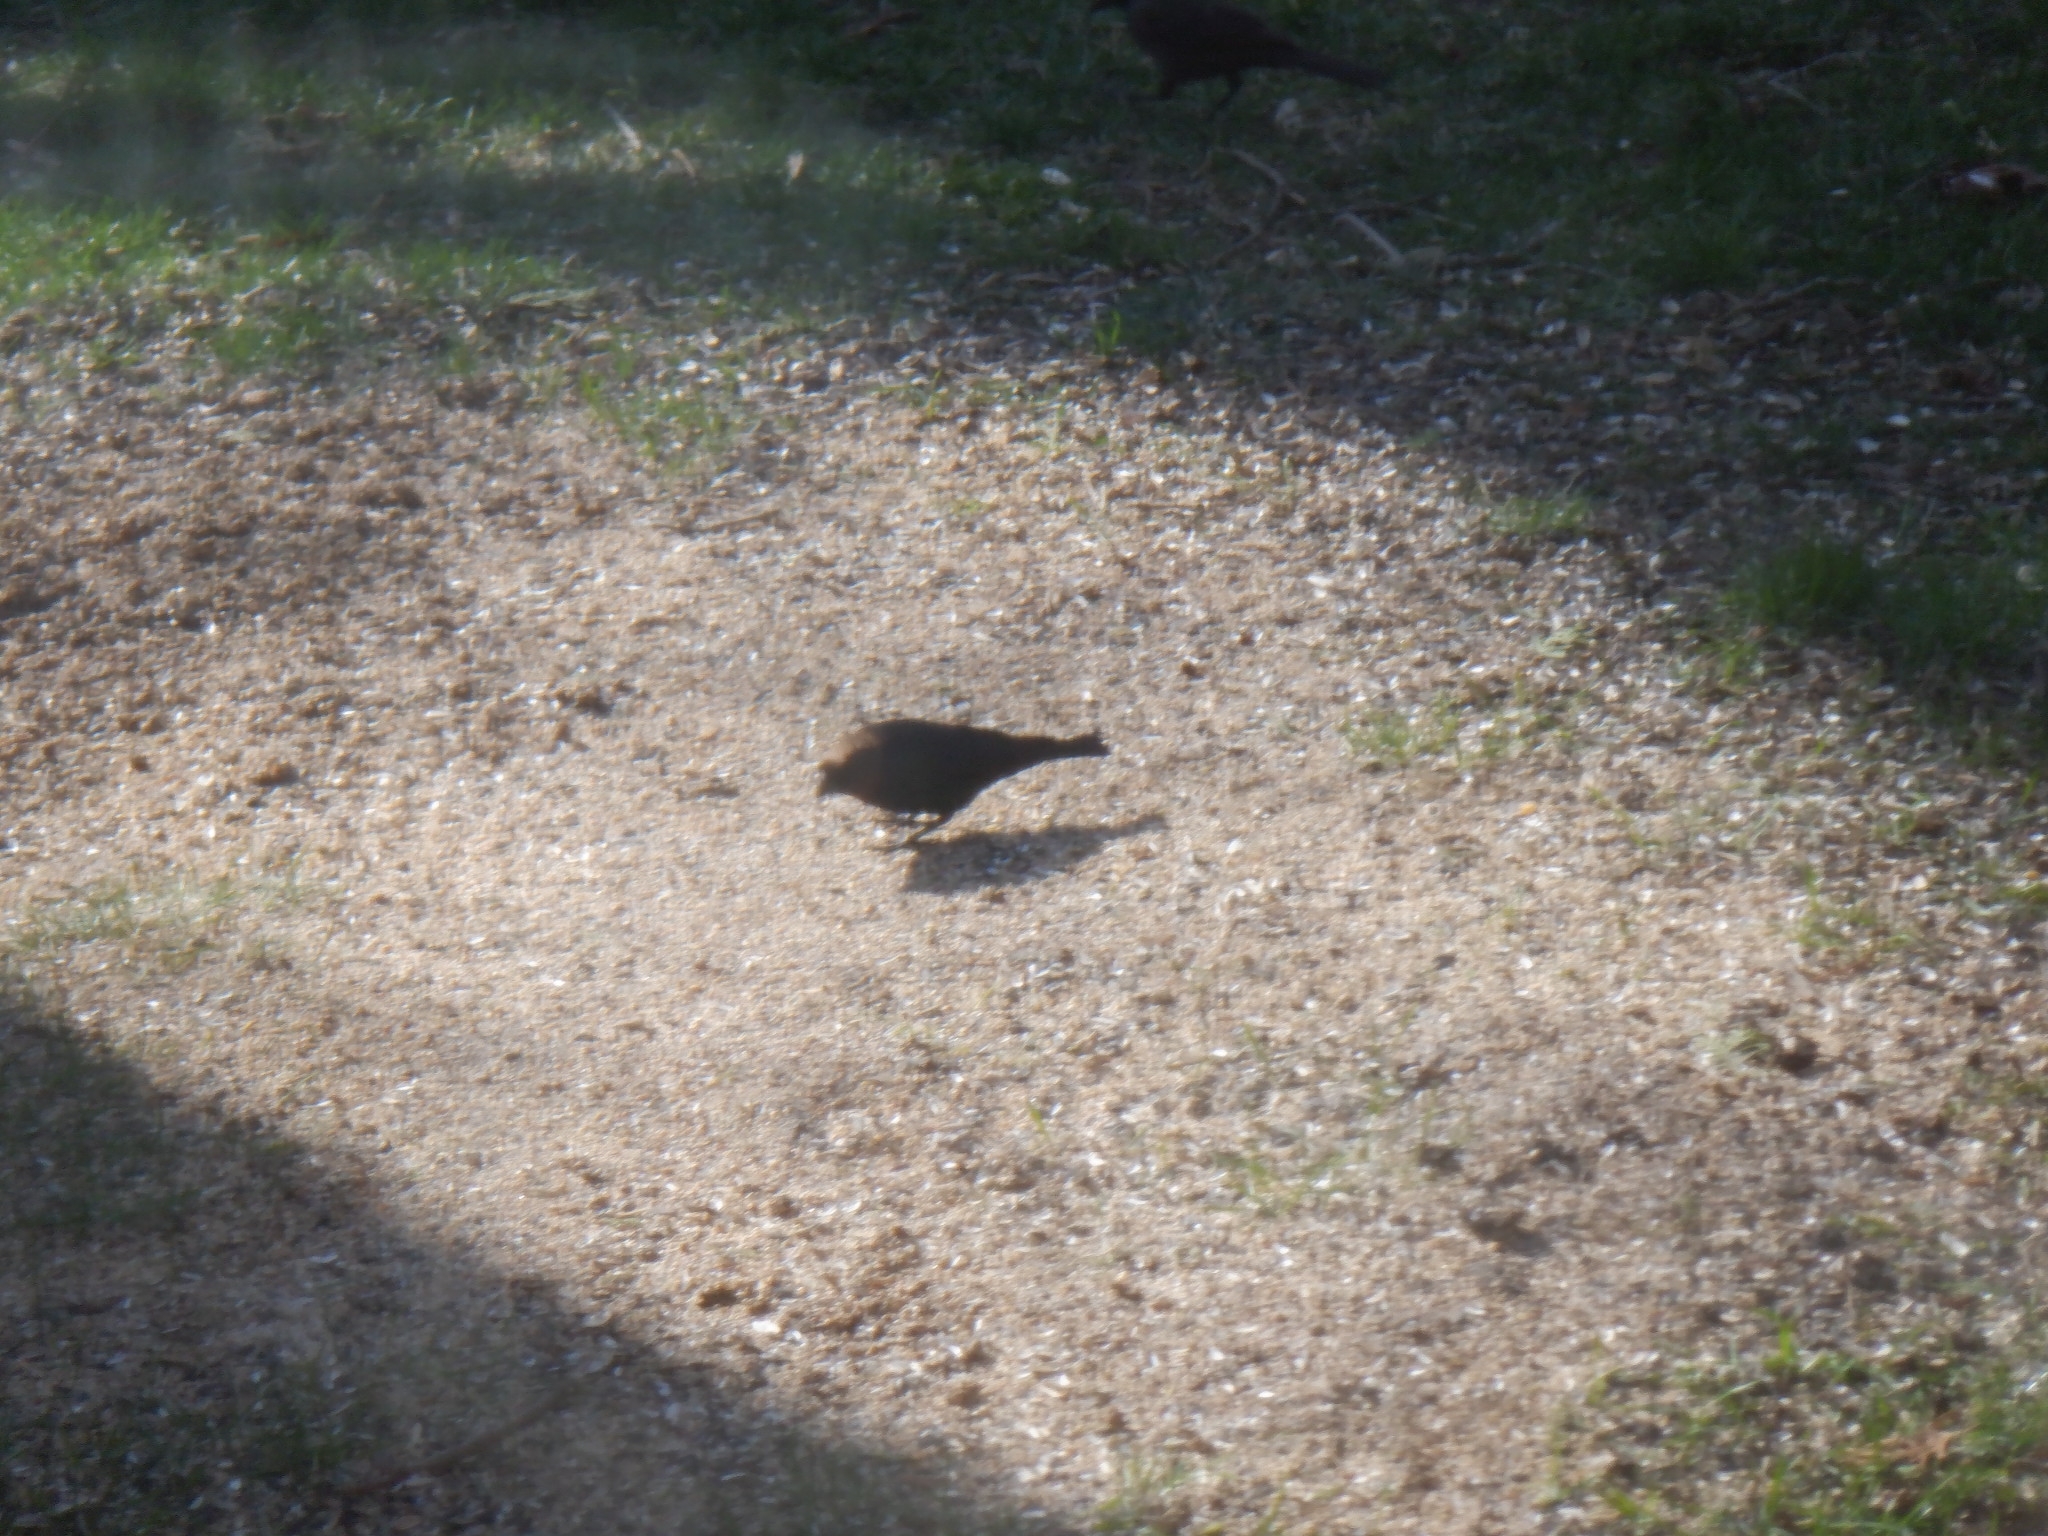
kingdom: Animalia
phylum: Chordata
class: Aves
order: Passeriformes
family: Icteridae
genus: Molothrus
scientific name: Molothrus ater
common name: Brown-headed cowbird
